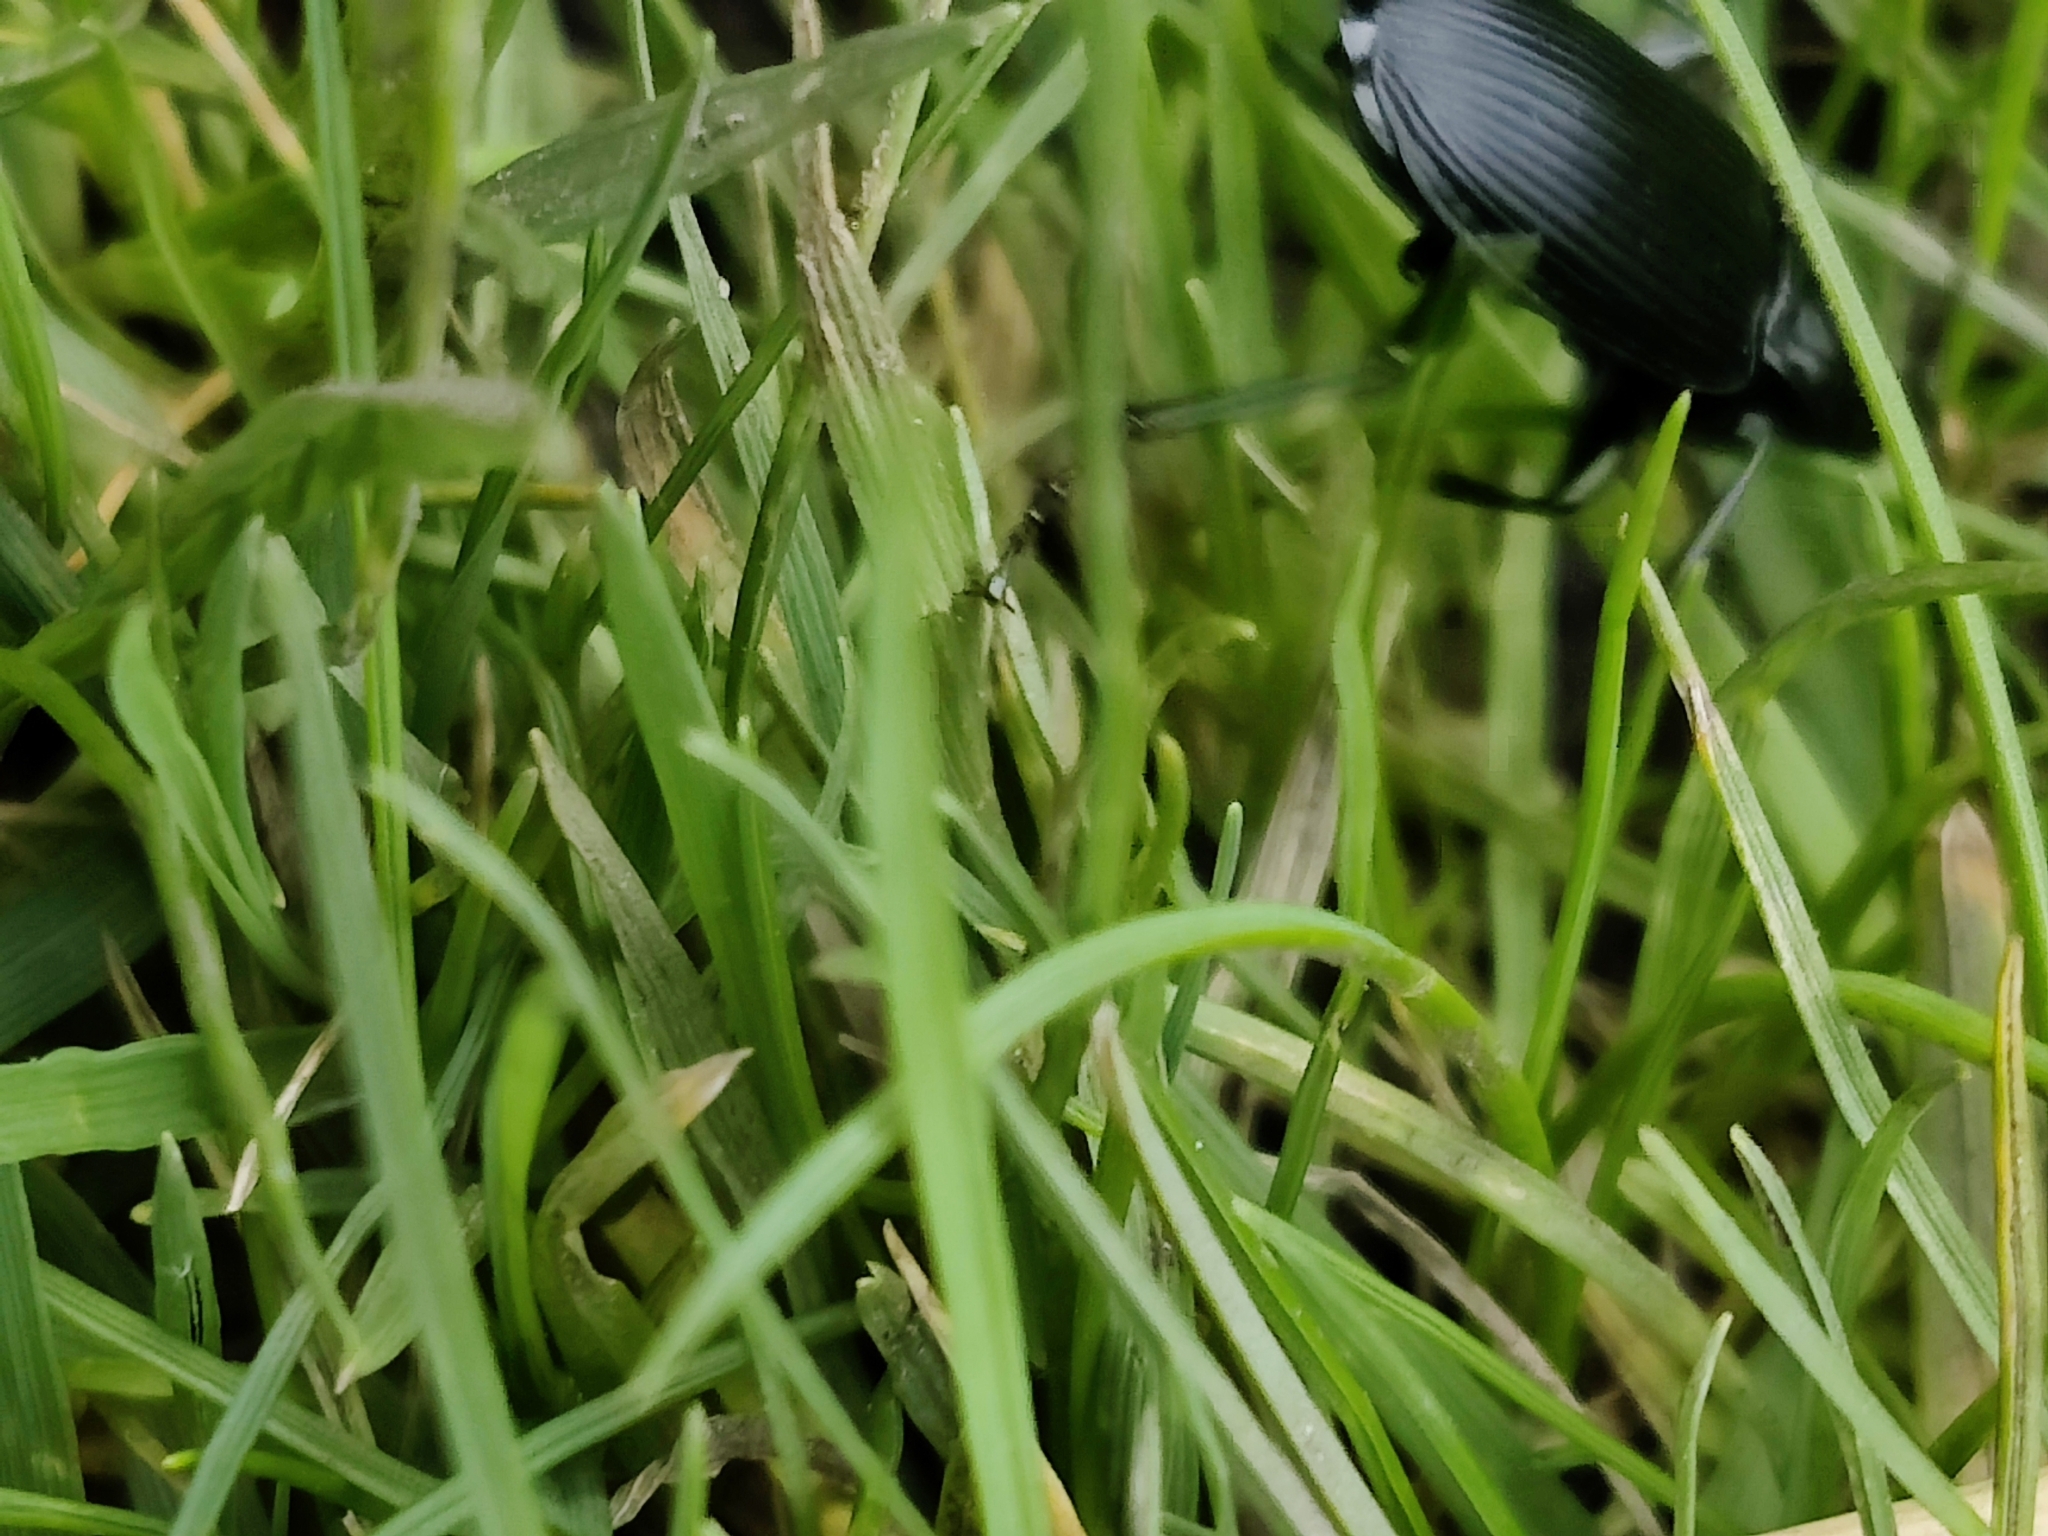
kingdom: Animalia
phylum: Arthropoda
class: Insecta
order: Coleoptera
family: Carabidae
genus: Pterostichus
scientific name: Pterostichus niger
